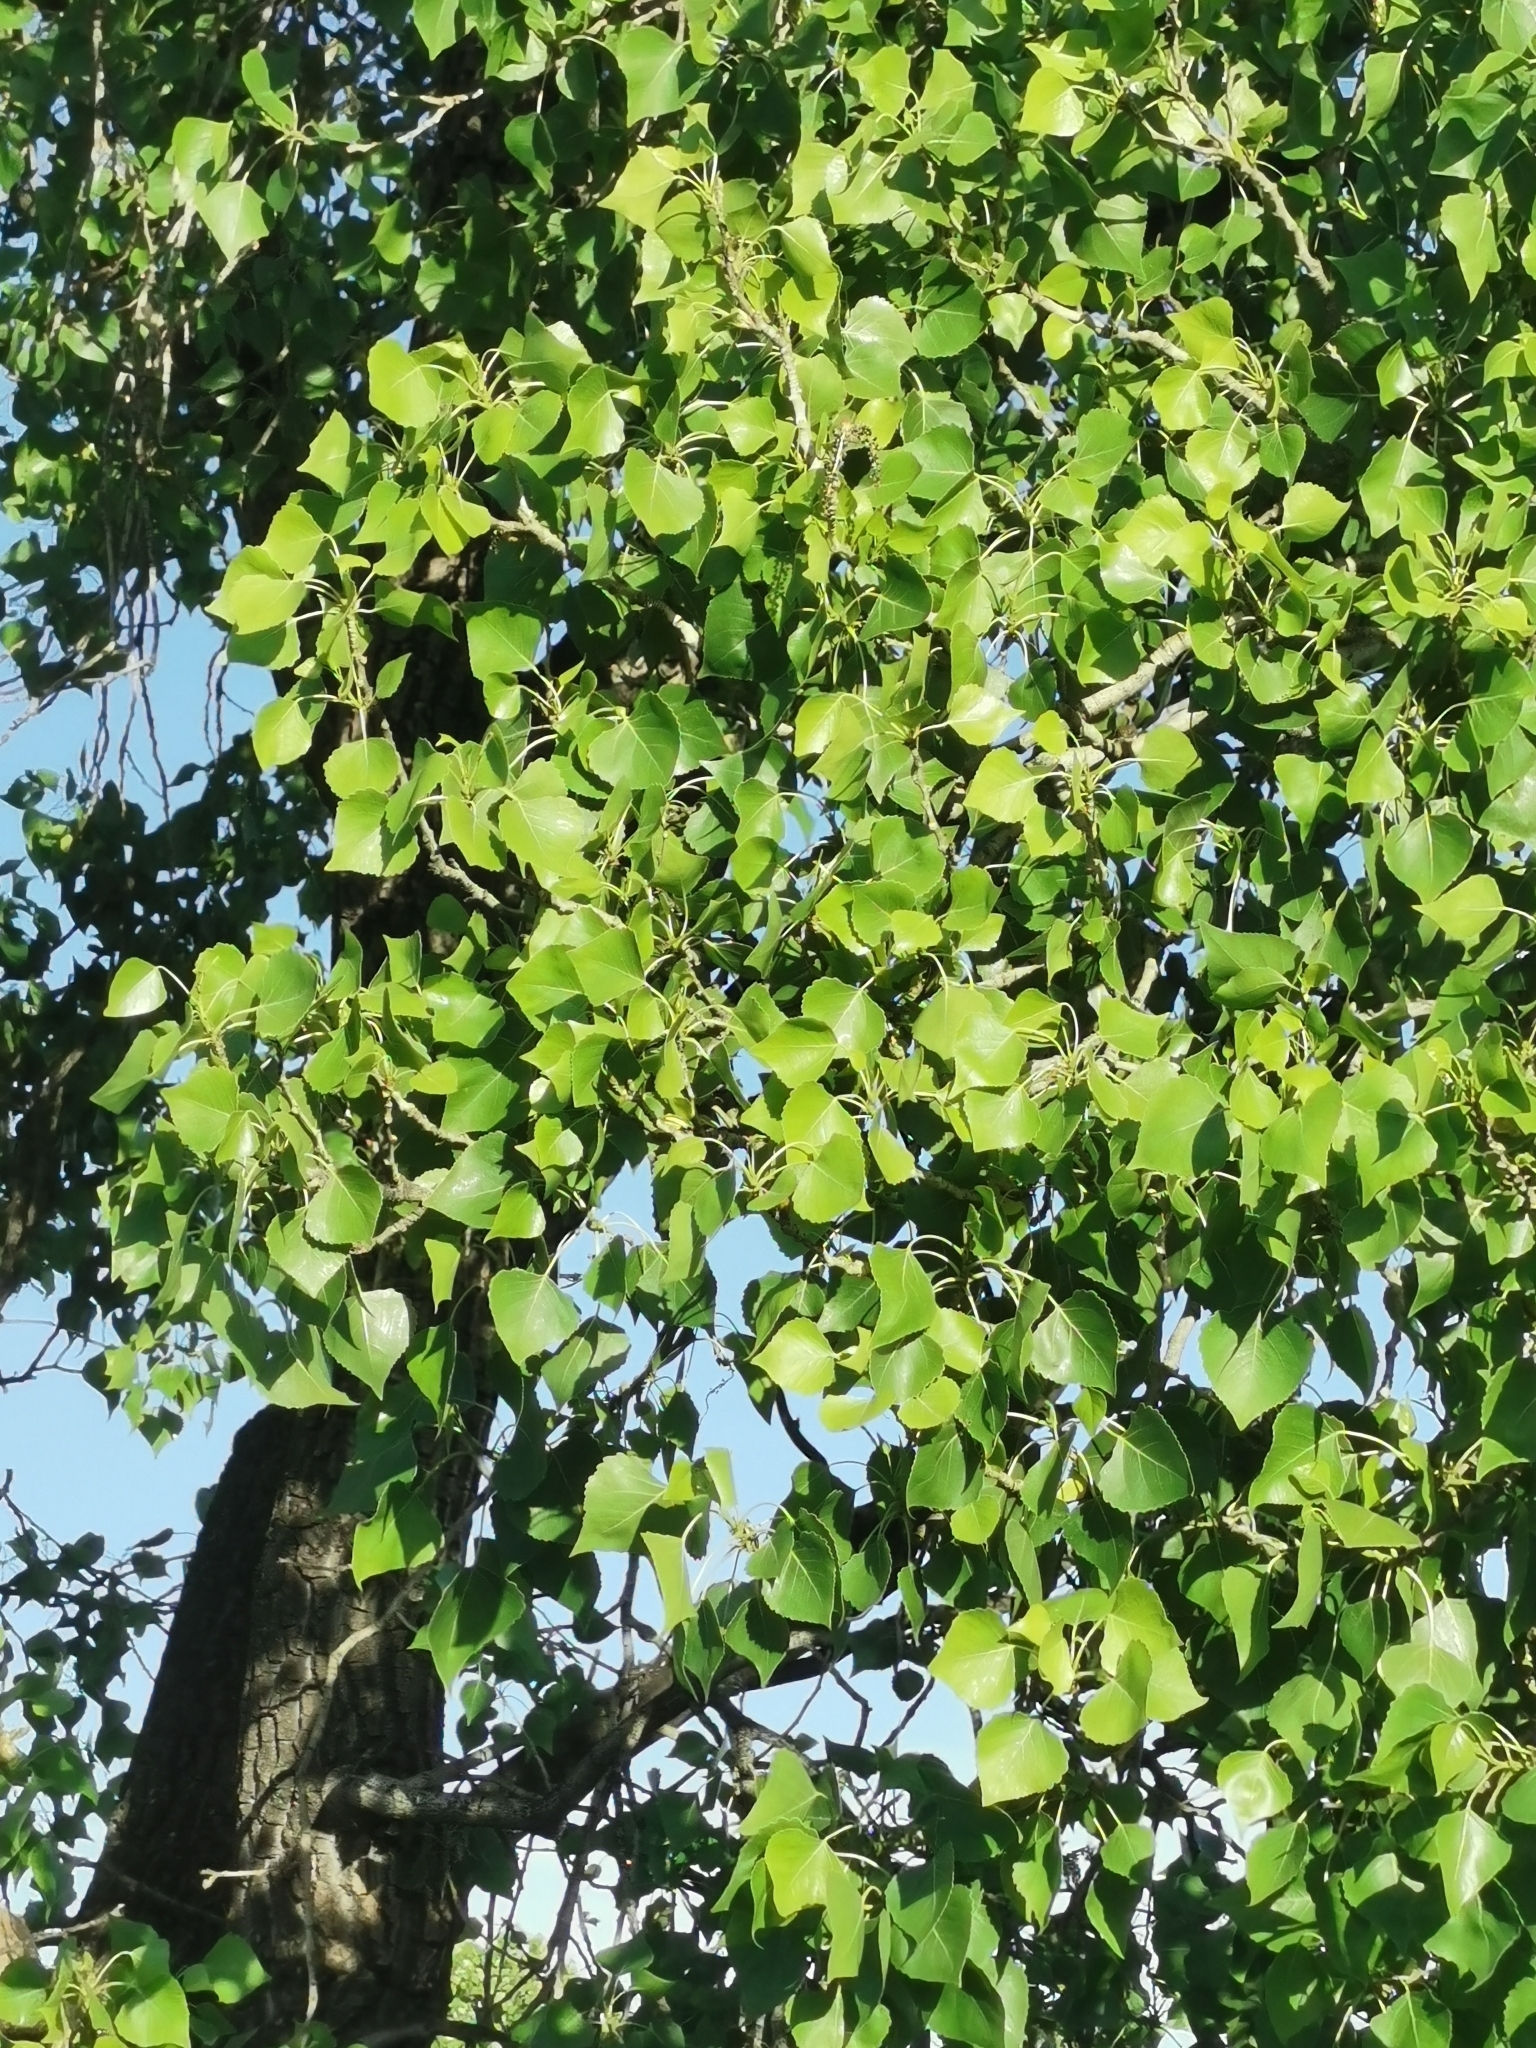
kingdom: Plantae
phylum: Tracheophyta
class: Magnoliopsida
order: Malpighiales
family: Salicaceae
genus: Populus
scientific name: Populus fremontii
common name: Fremont's cottonwood
